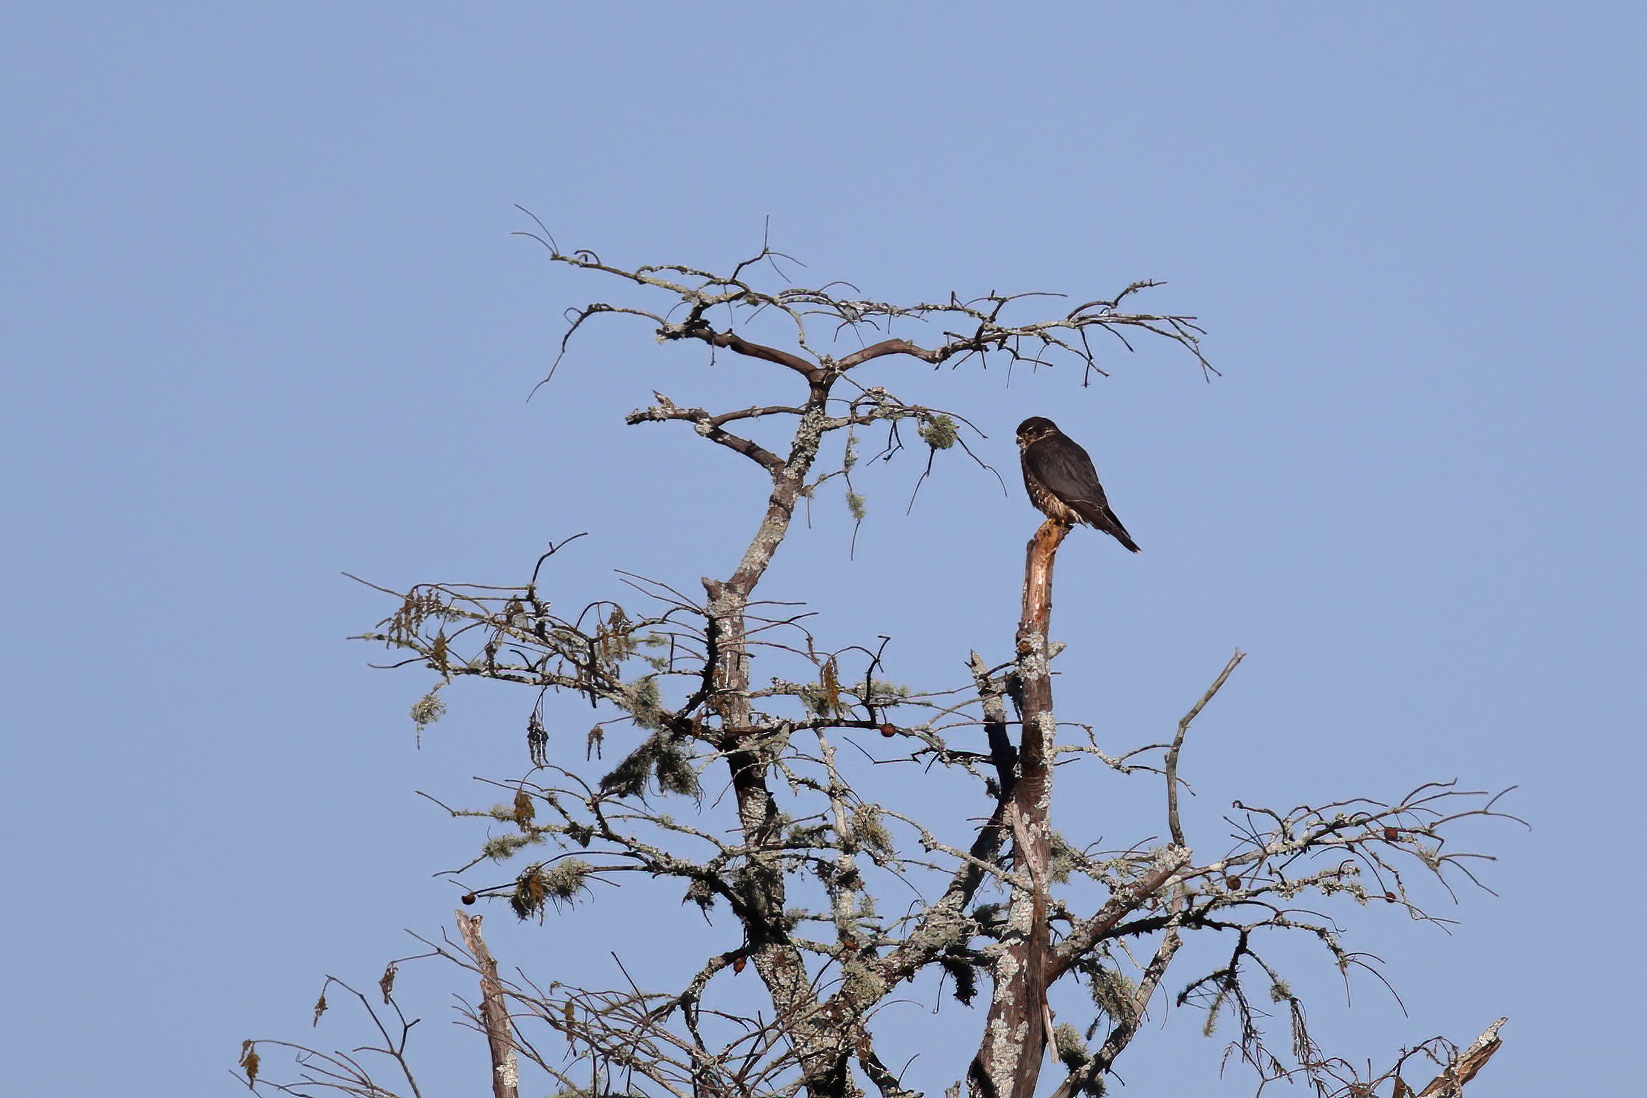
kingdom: Animalia
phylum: Chordata
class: Aves
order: Falconiformes
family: Falconidae
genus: Falco
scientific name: Falco columbarius
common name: Merlin
